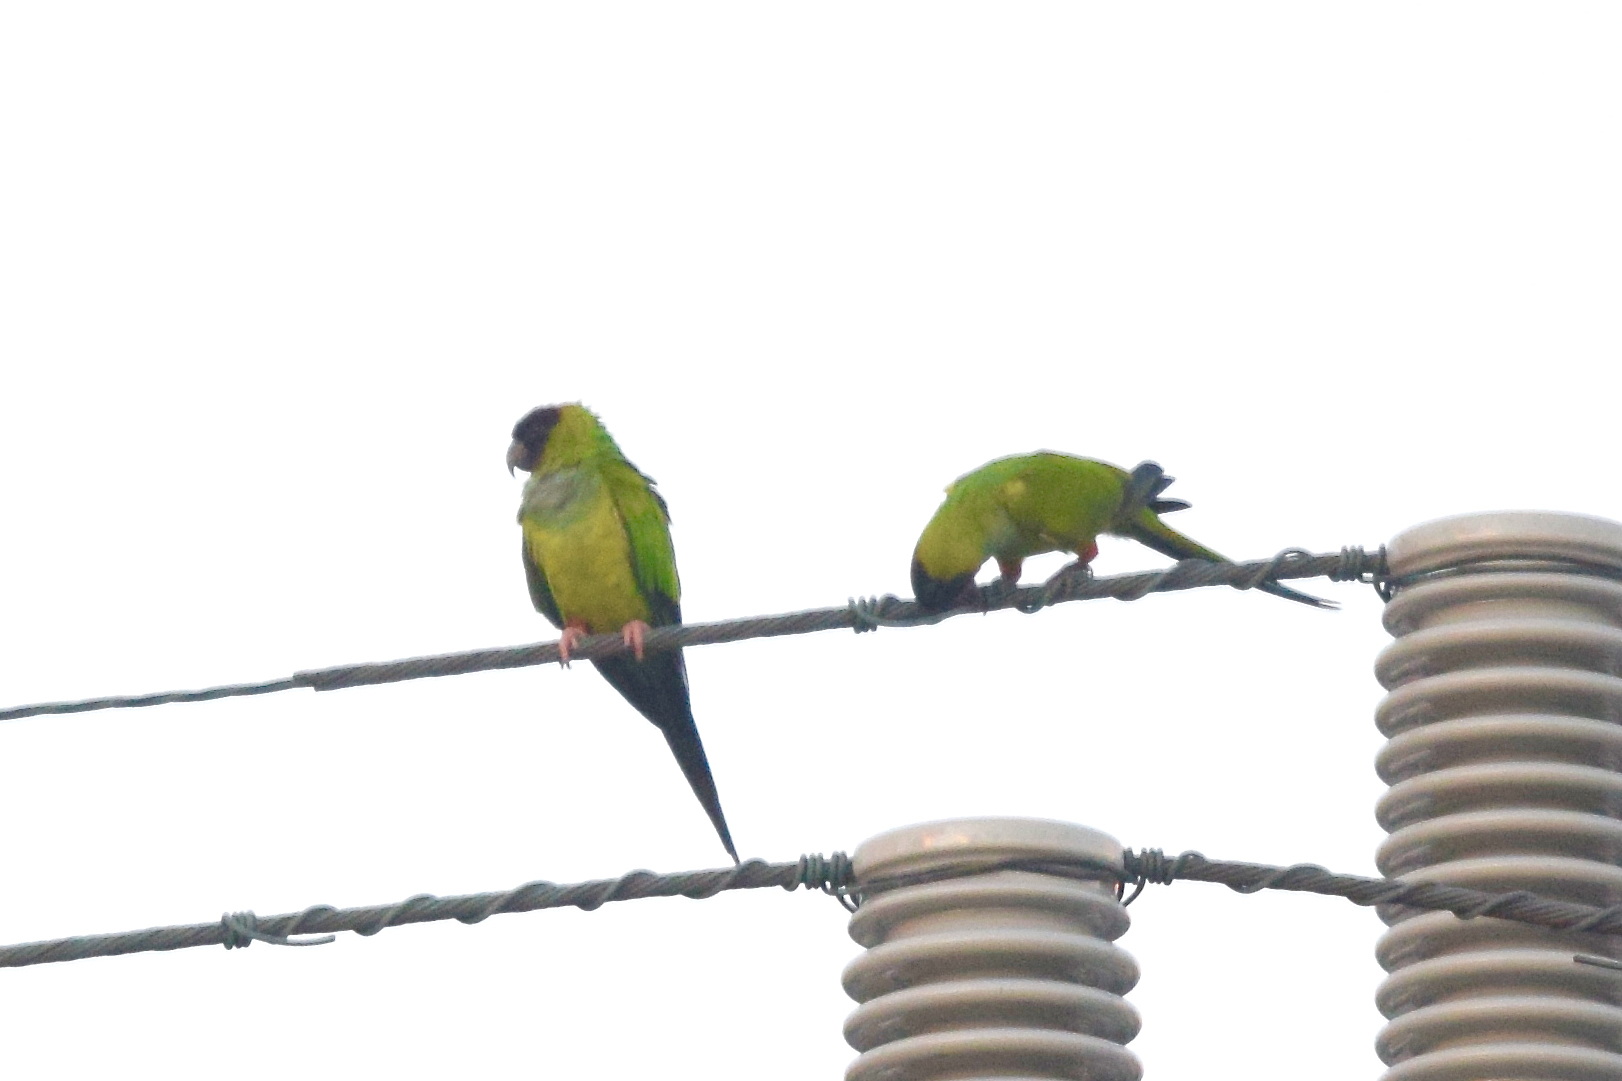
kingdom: Animalia
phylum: Chordata
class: Aves
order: Psittaciformes
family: Psittacidae
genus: Nandayus
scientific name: Nandayus nenday
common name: Nanday parakeet
